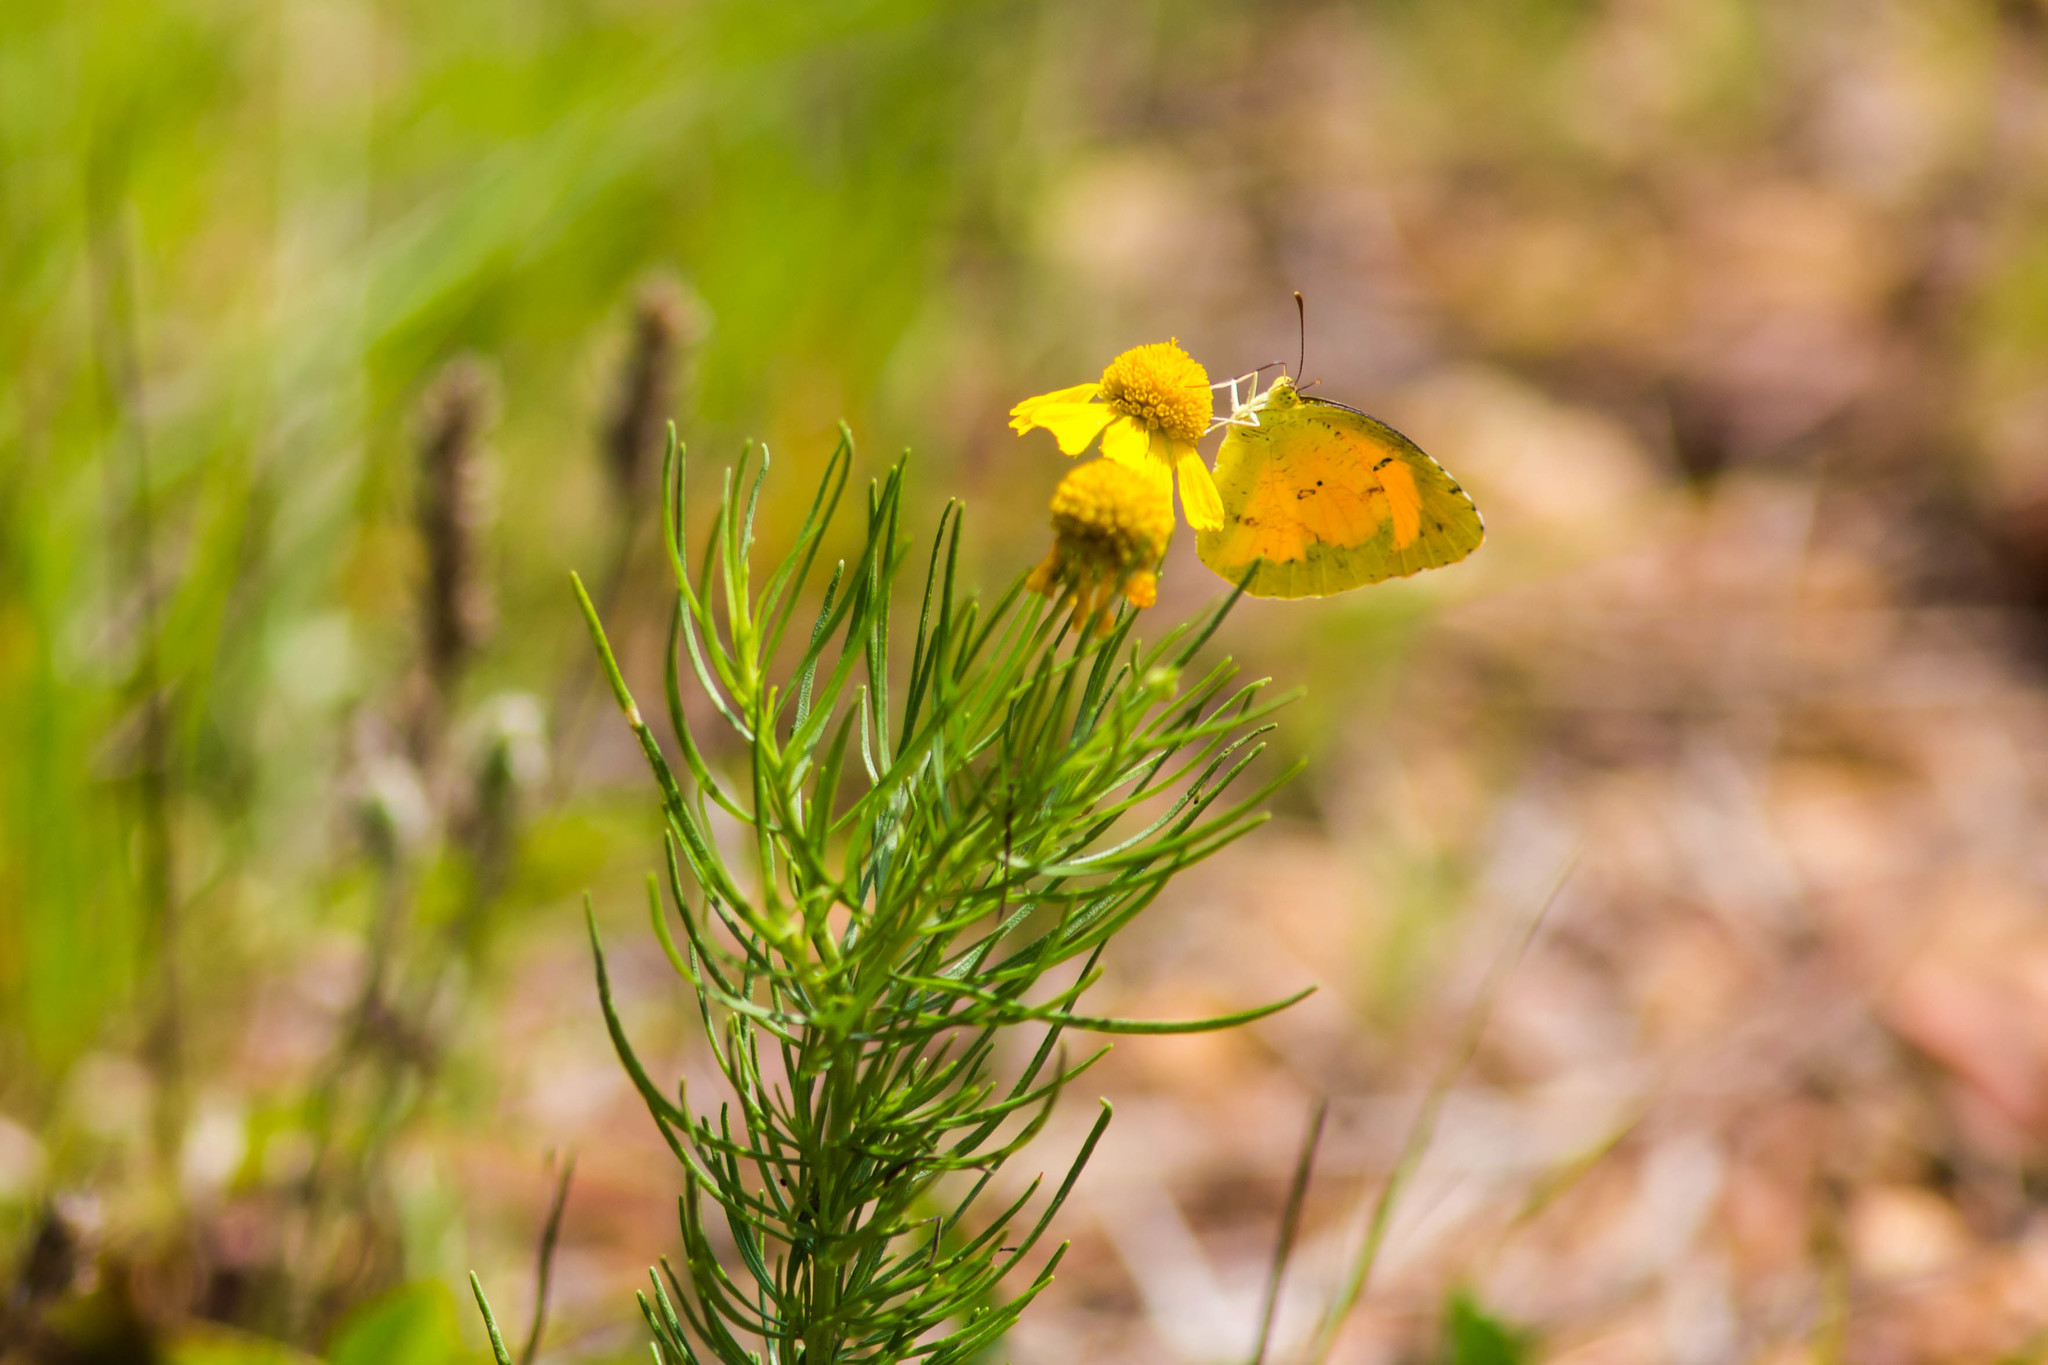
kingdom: Animalia
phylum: Arthropoda
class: Insecta
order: Lepidoptera
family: Pieridae
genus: Abaeis
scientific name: Abaeis nicippe
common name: Sleepy orange
